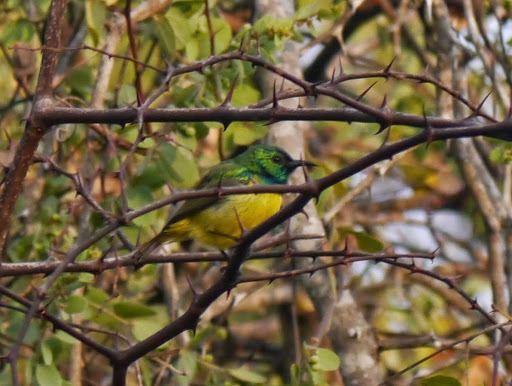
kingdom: Animalia
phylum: Chordata
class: Aves
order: Passeriformes
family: Nectariniidae
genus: Hedydipna
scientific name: Hedydipna collaris
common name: Collared sunbird
